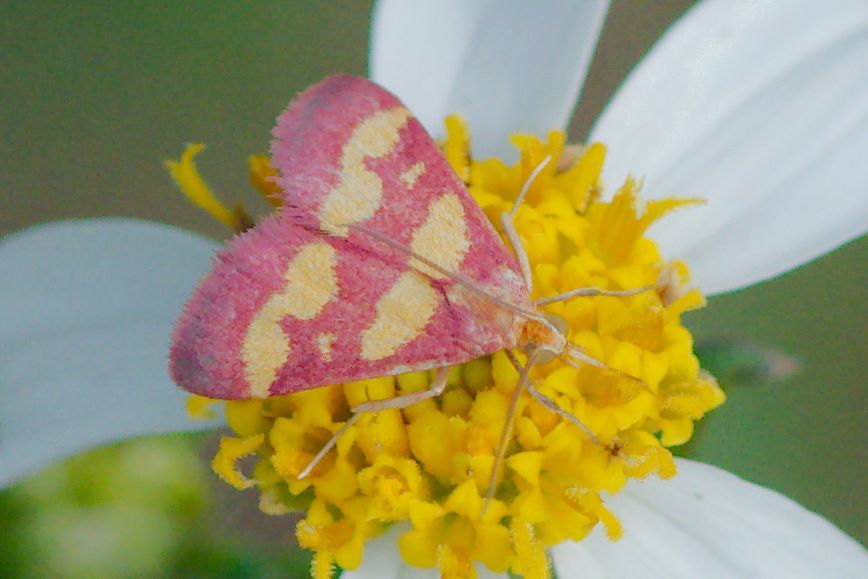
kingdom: Animalia
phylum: Arthropoda
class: Insecta
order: Lepidoptera
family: Crambidae
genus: Pyrausta
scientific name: Pyrausta tyralis
